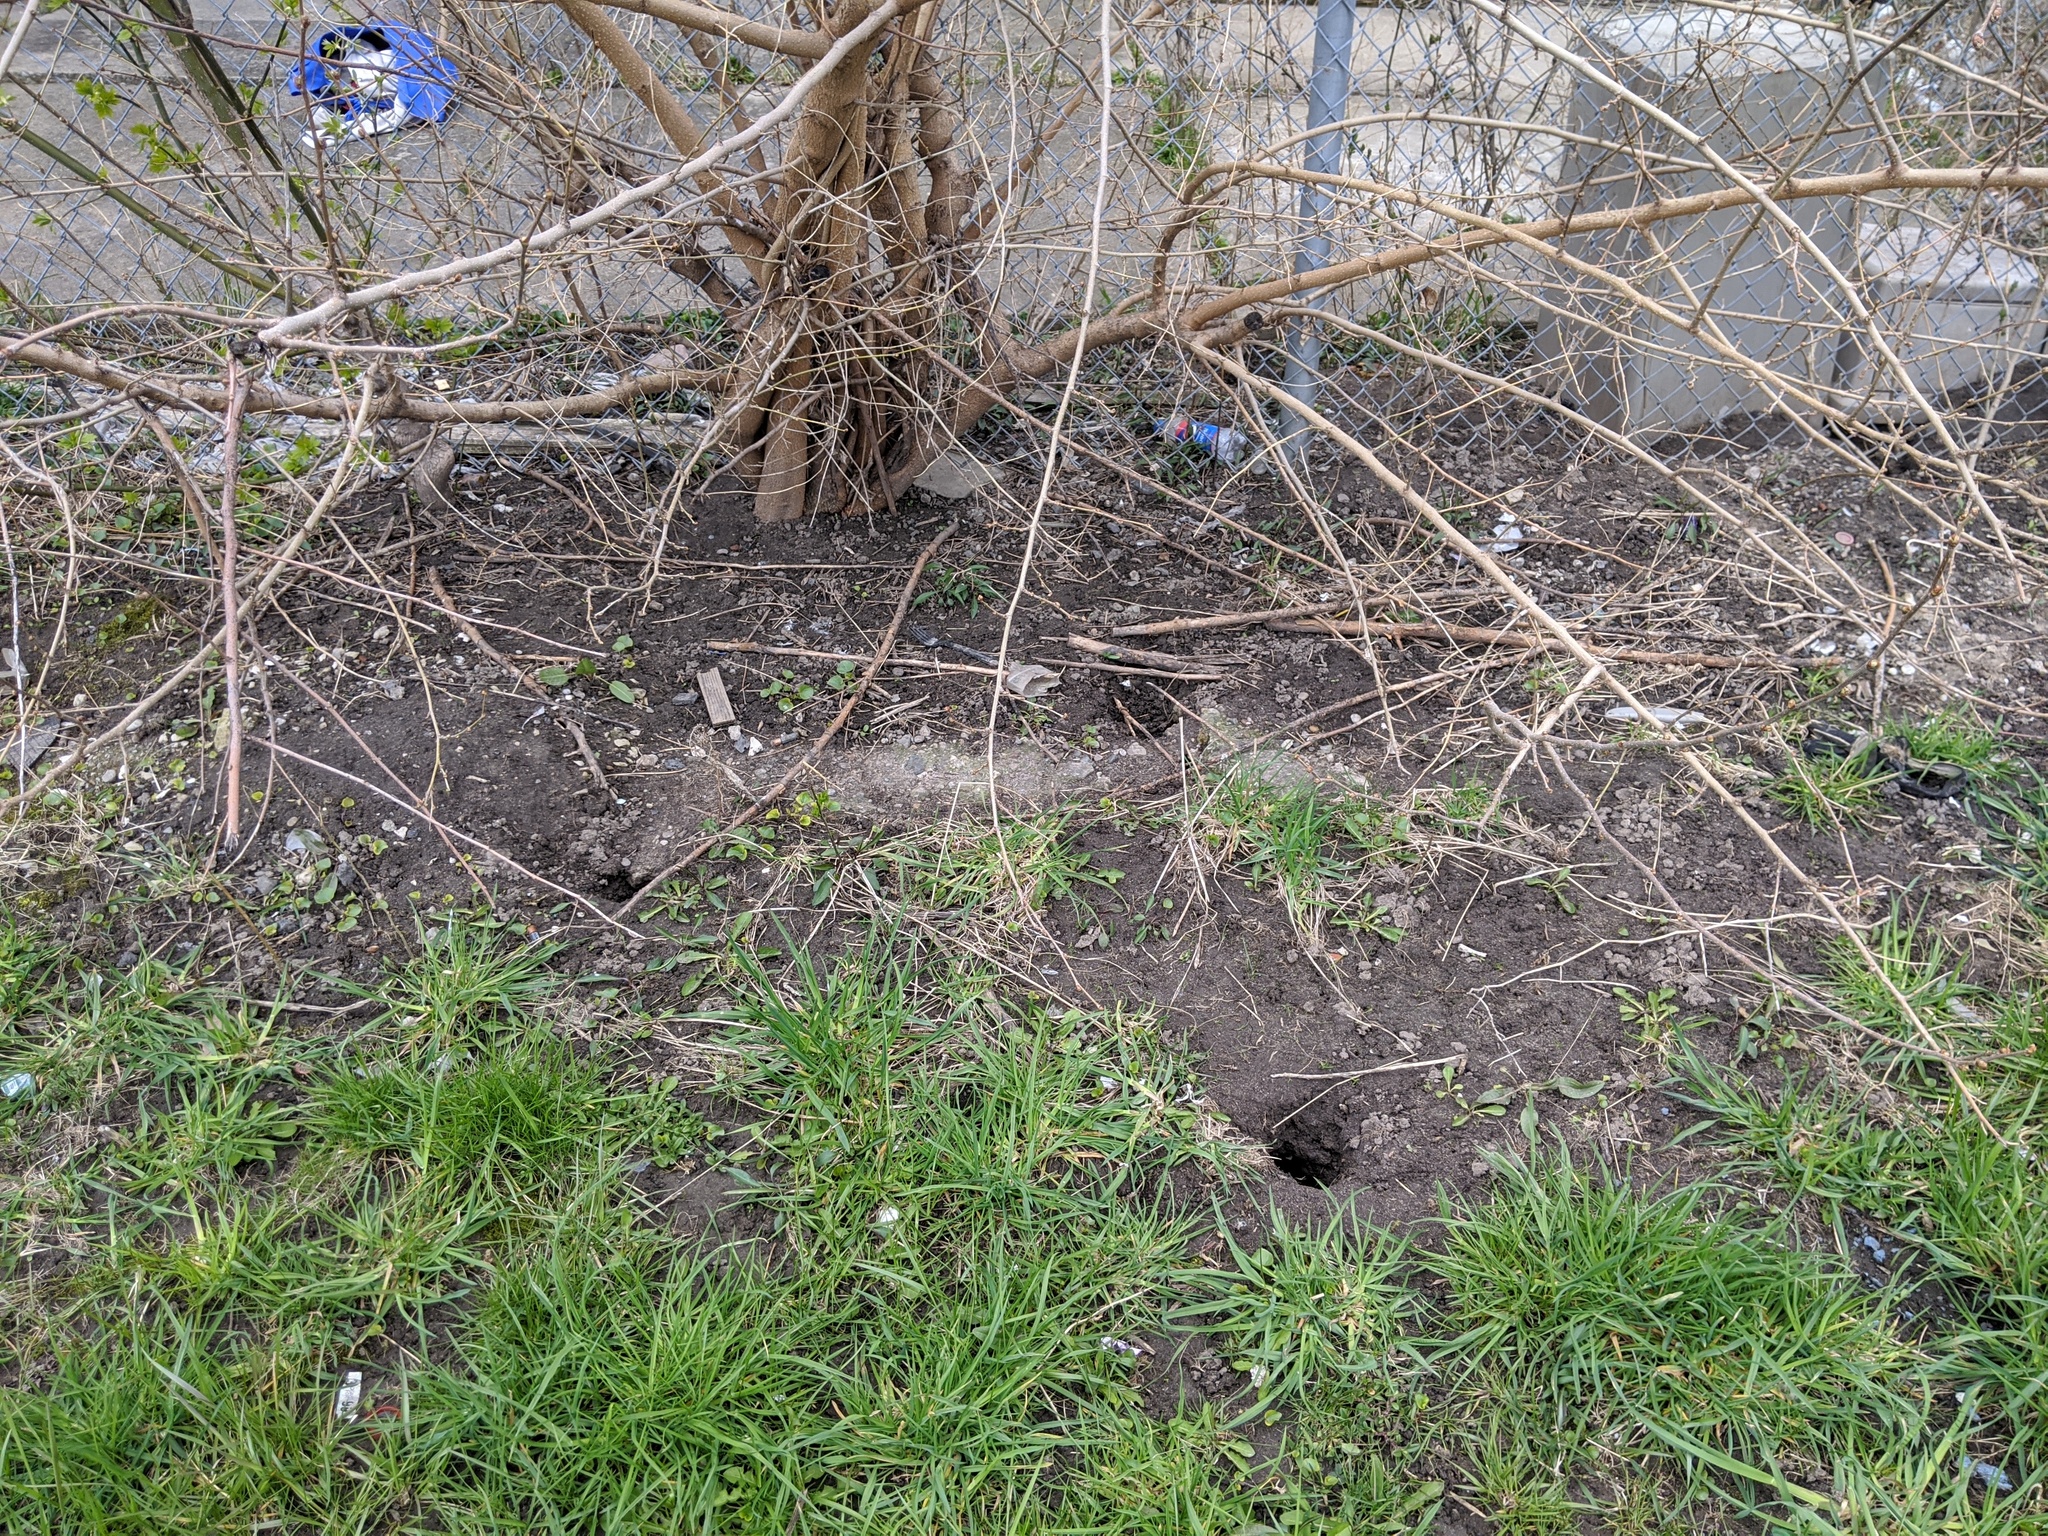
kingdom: Animalia
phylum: Chordata
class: Mammalia
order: Rodentia
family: Muridae
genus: Rattus
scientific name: Rattus norvegicus
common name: Brown rat
